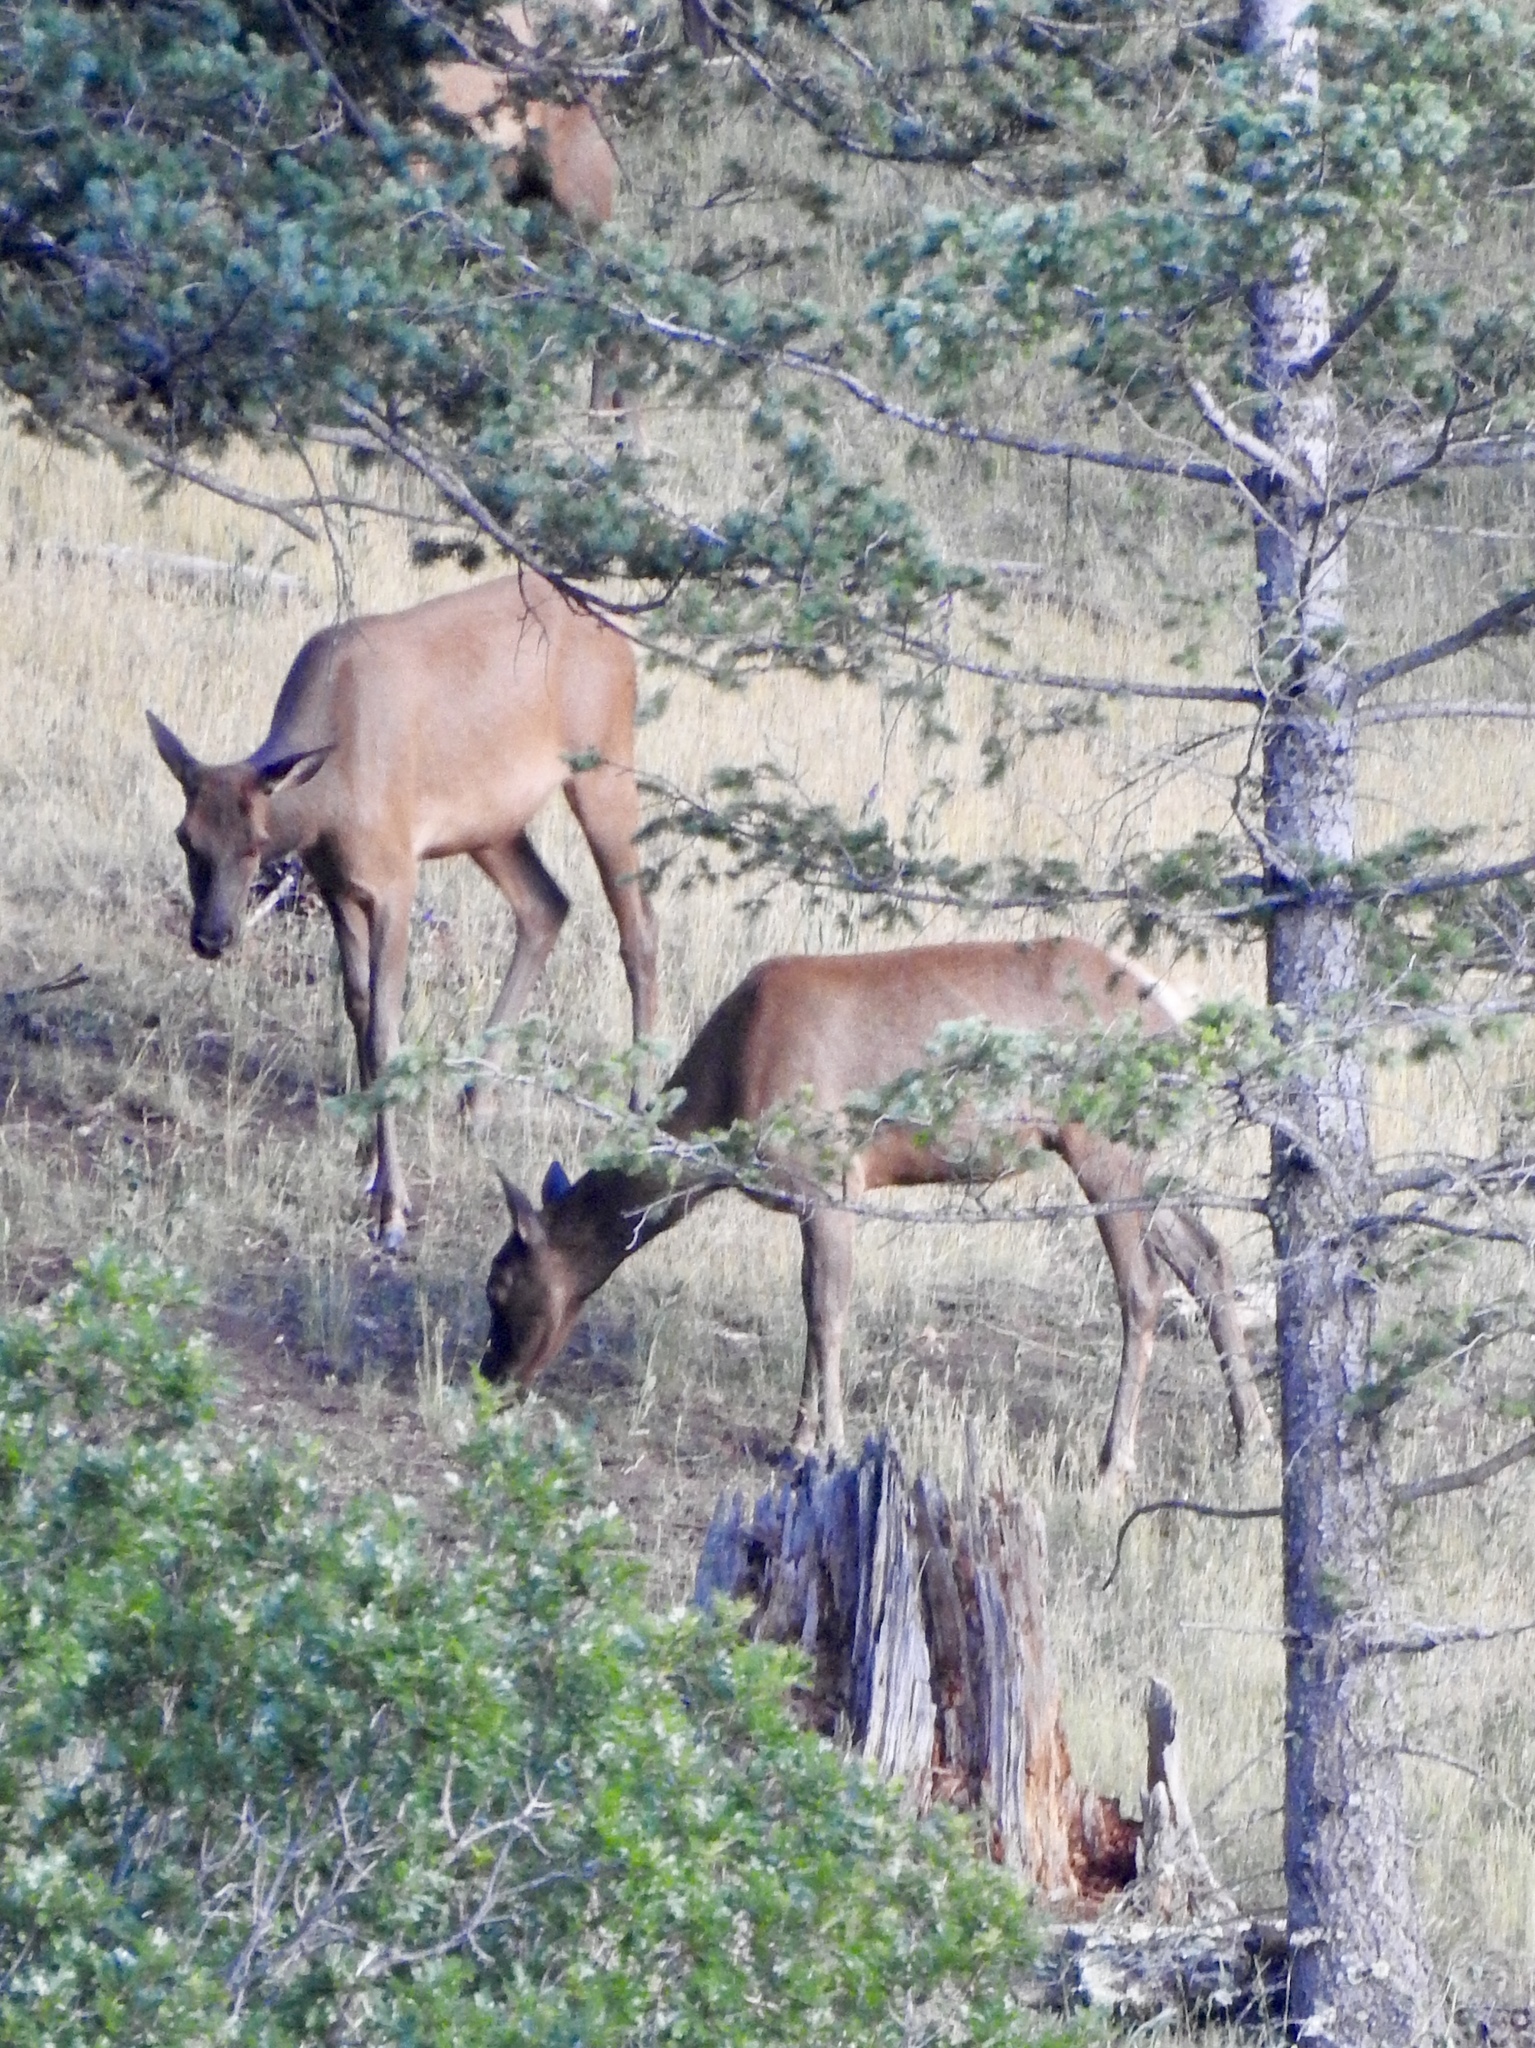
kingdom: Animalia
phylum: Chordata
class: Mammalia
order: Artiodactyla
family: Cervidae
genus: Cervus
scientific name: Cervus elaphus
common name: Red deer
